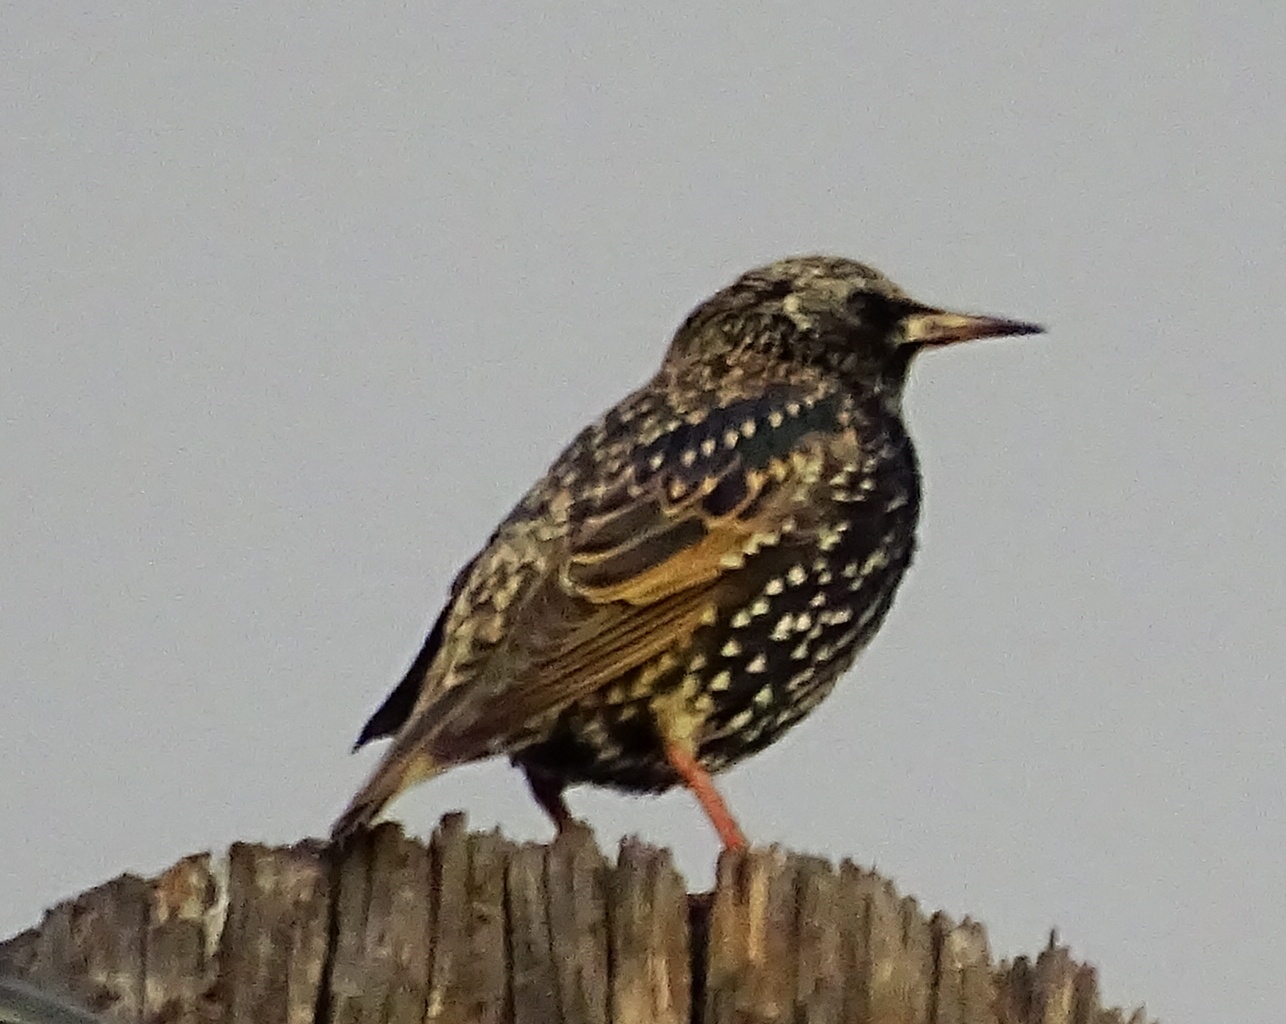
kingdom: Animalia
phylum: Chordata
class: Aves
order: Passeriformes
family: Sturnidae
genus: Sturnus
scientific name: Sturnus vulgaris
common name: Common starling
